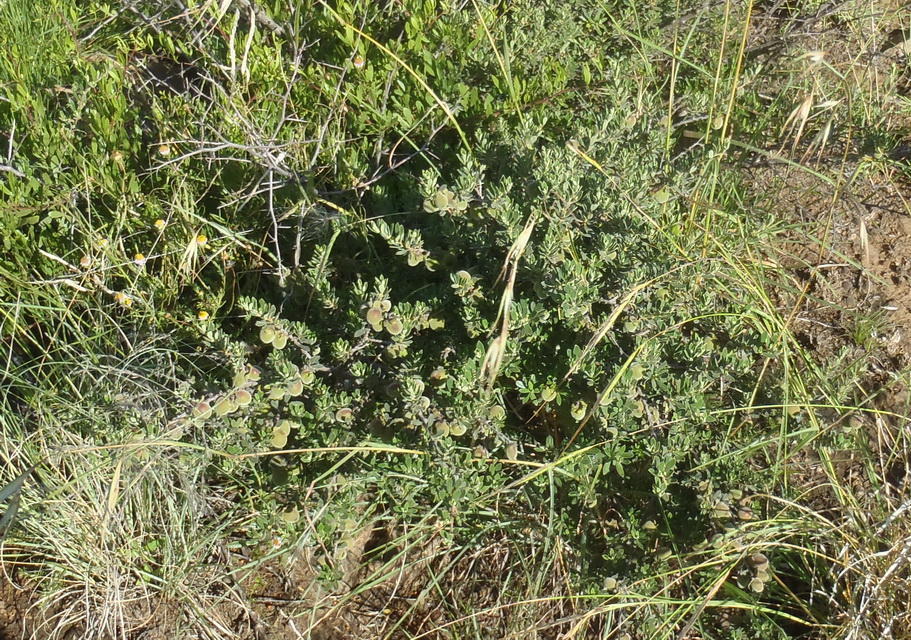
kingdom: Plantae
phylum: Tracheophyta
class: Magnoliopsida
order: Ericales
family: Ebenaceae
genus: Diospyros
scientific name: Diospyros pubescens
